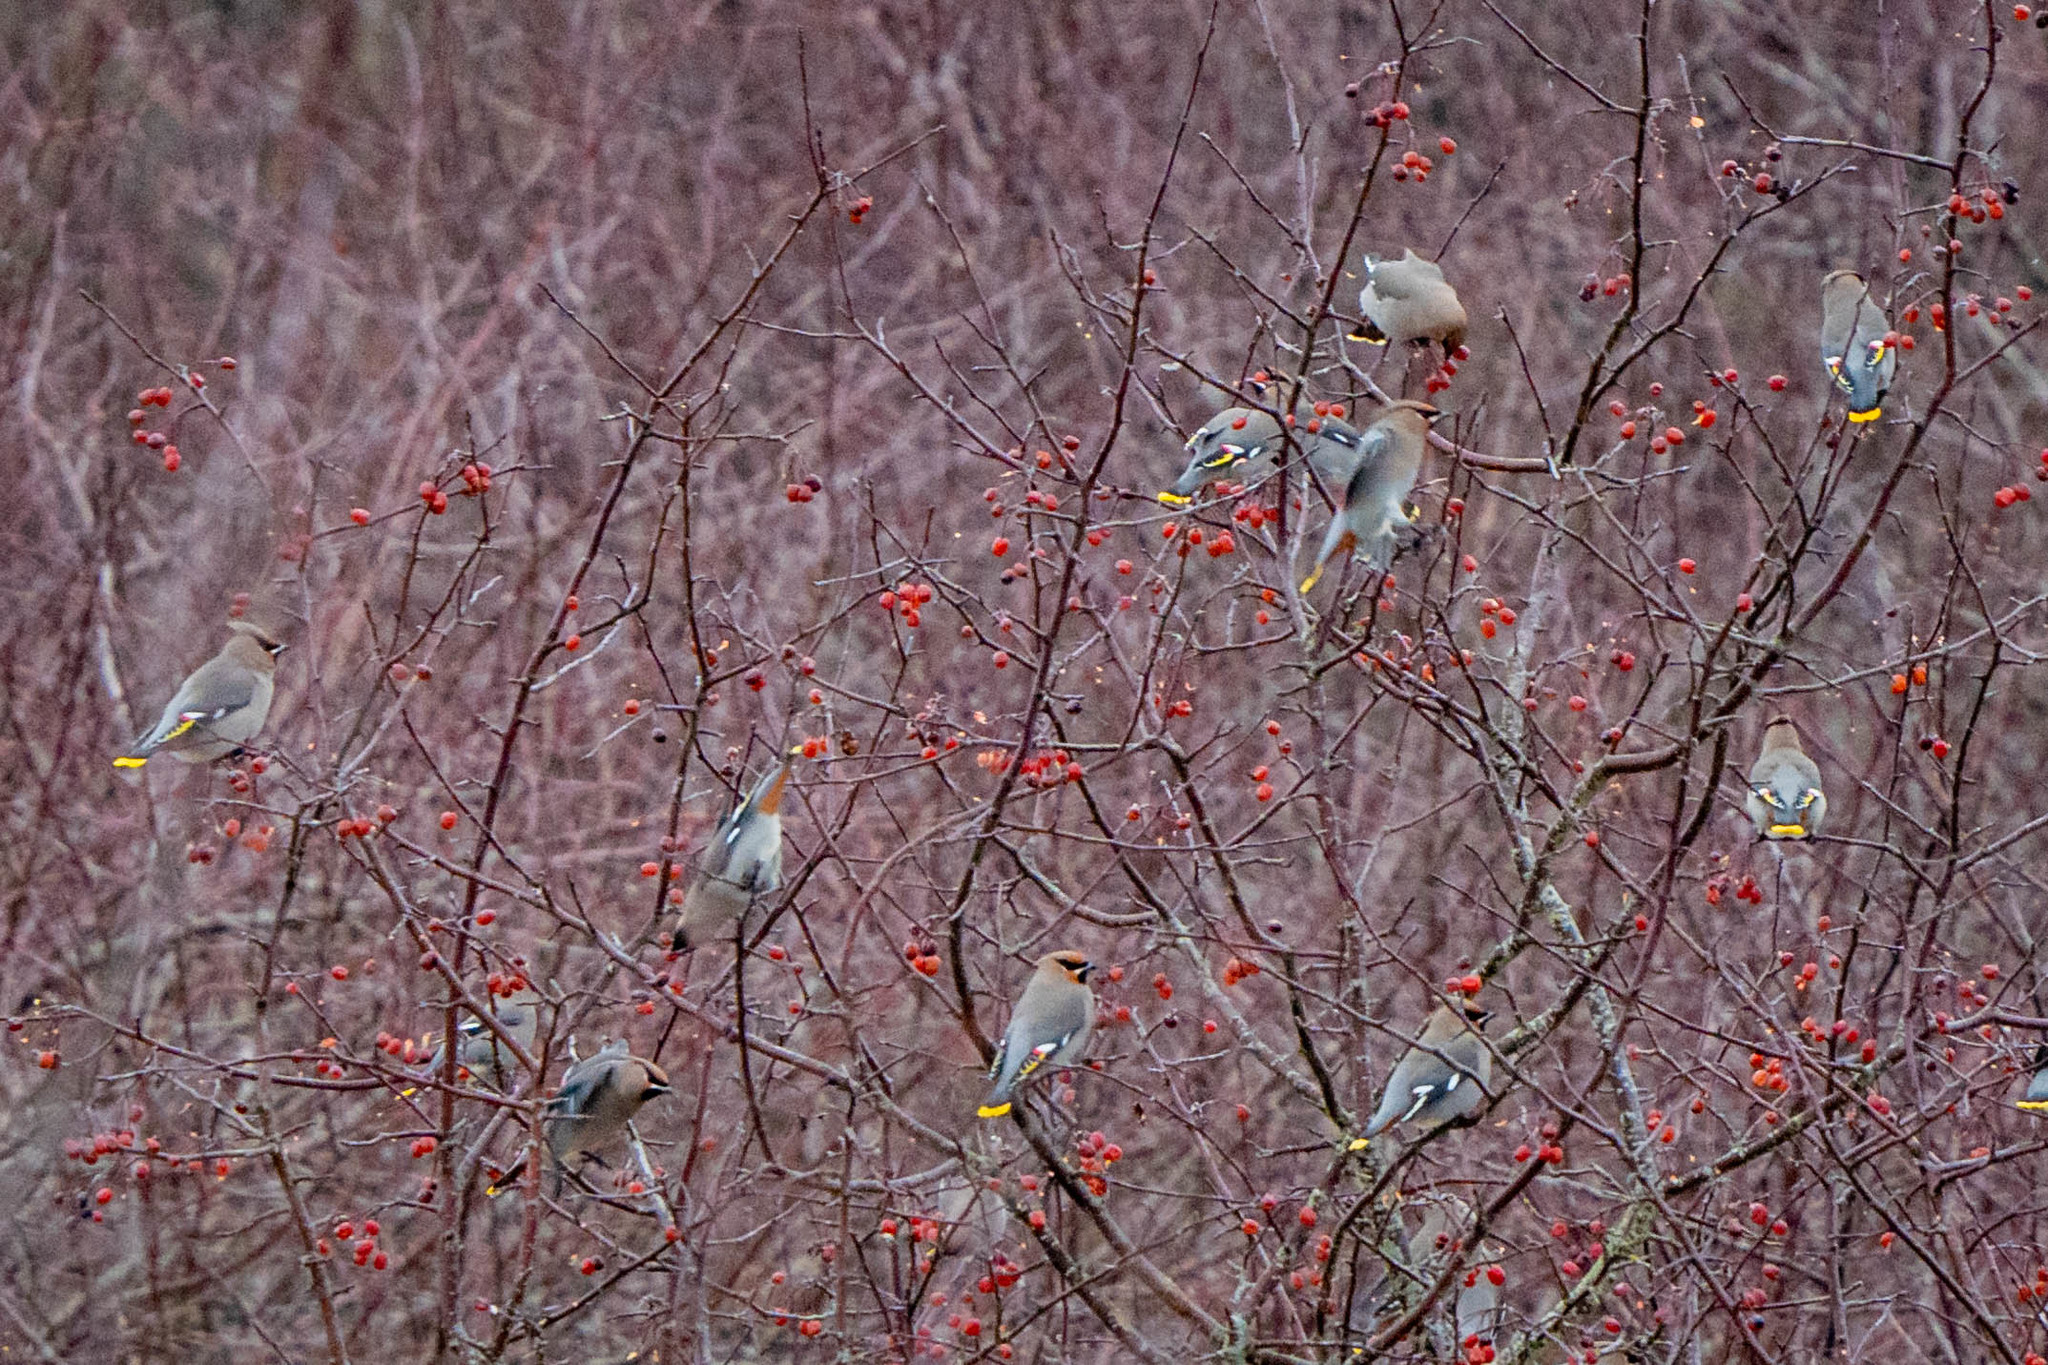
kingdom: Animalia
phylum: Chordata
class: Aves
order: Passeriformes
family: Bombycillidae
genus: Bombycilla
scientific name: Bombycilla garrulus
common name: Bohemian waxwing
